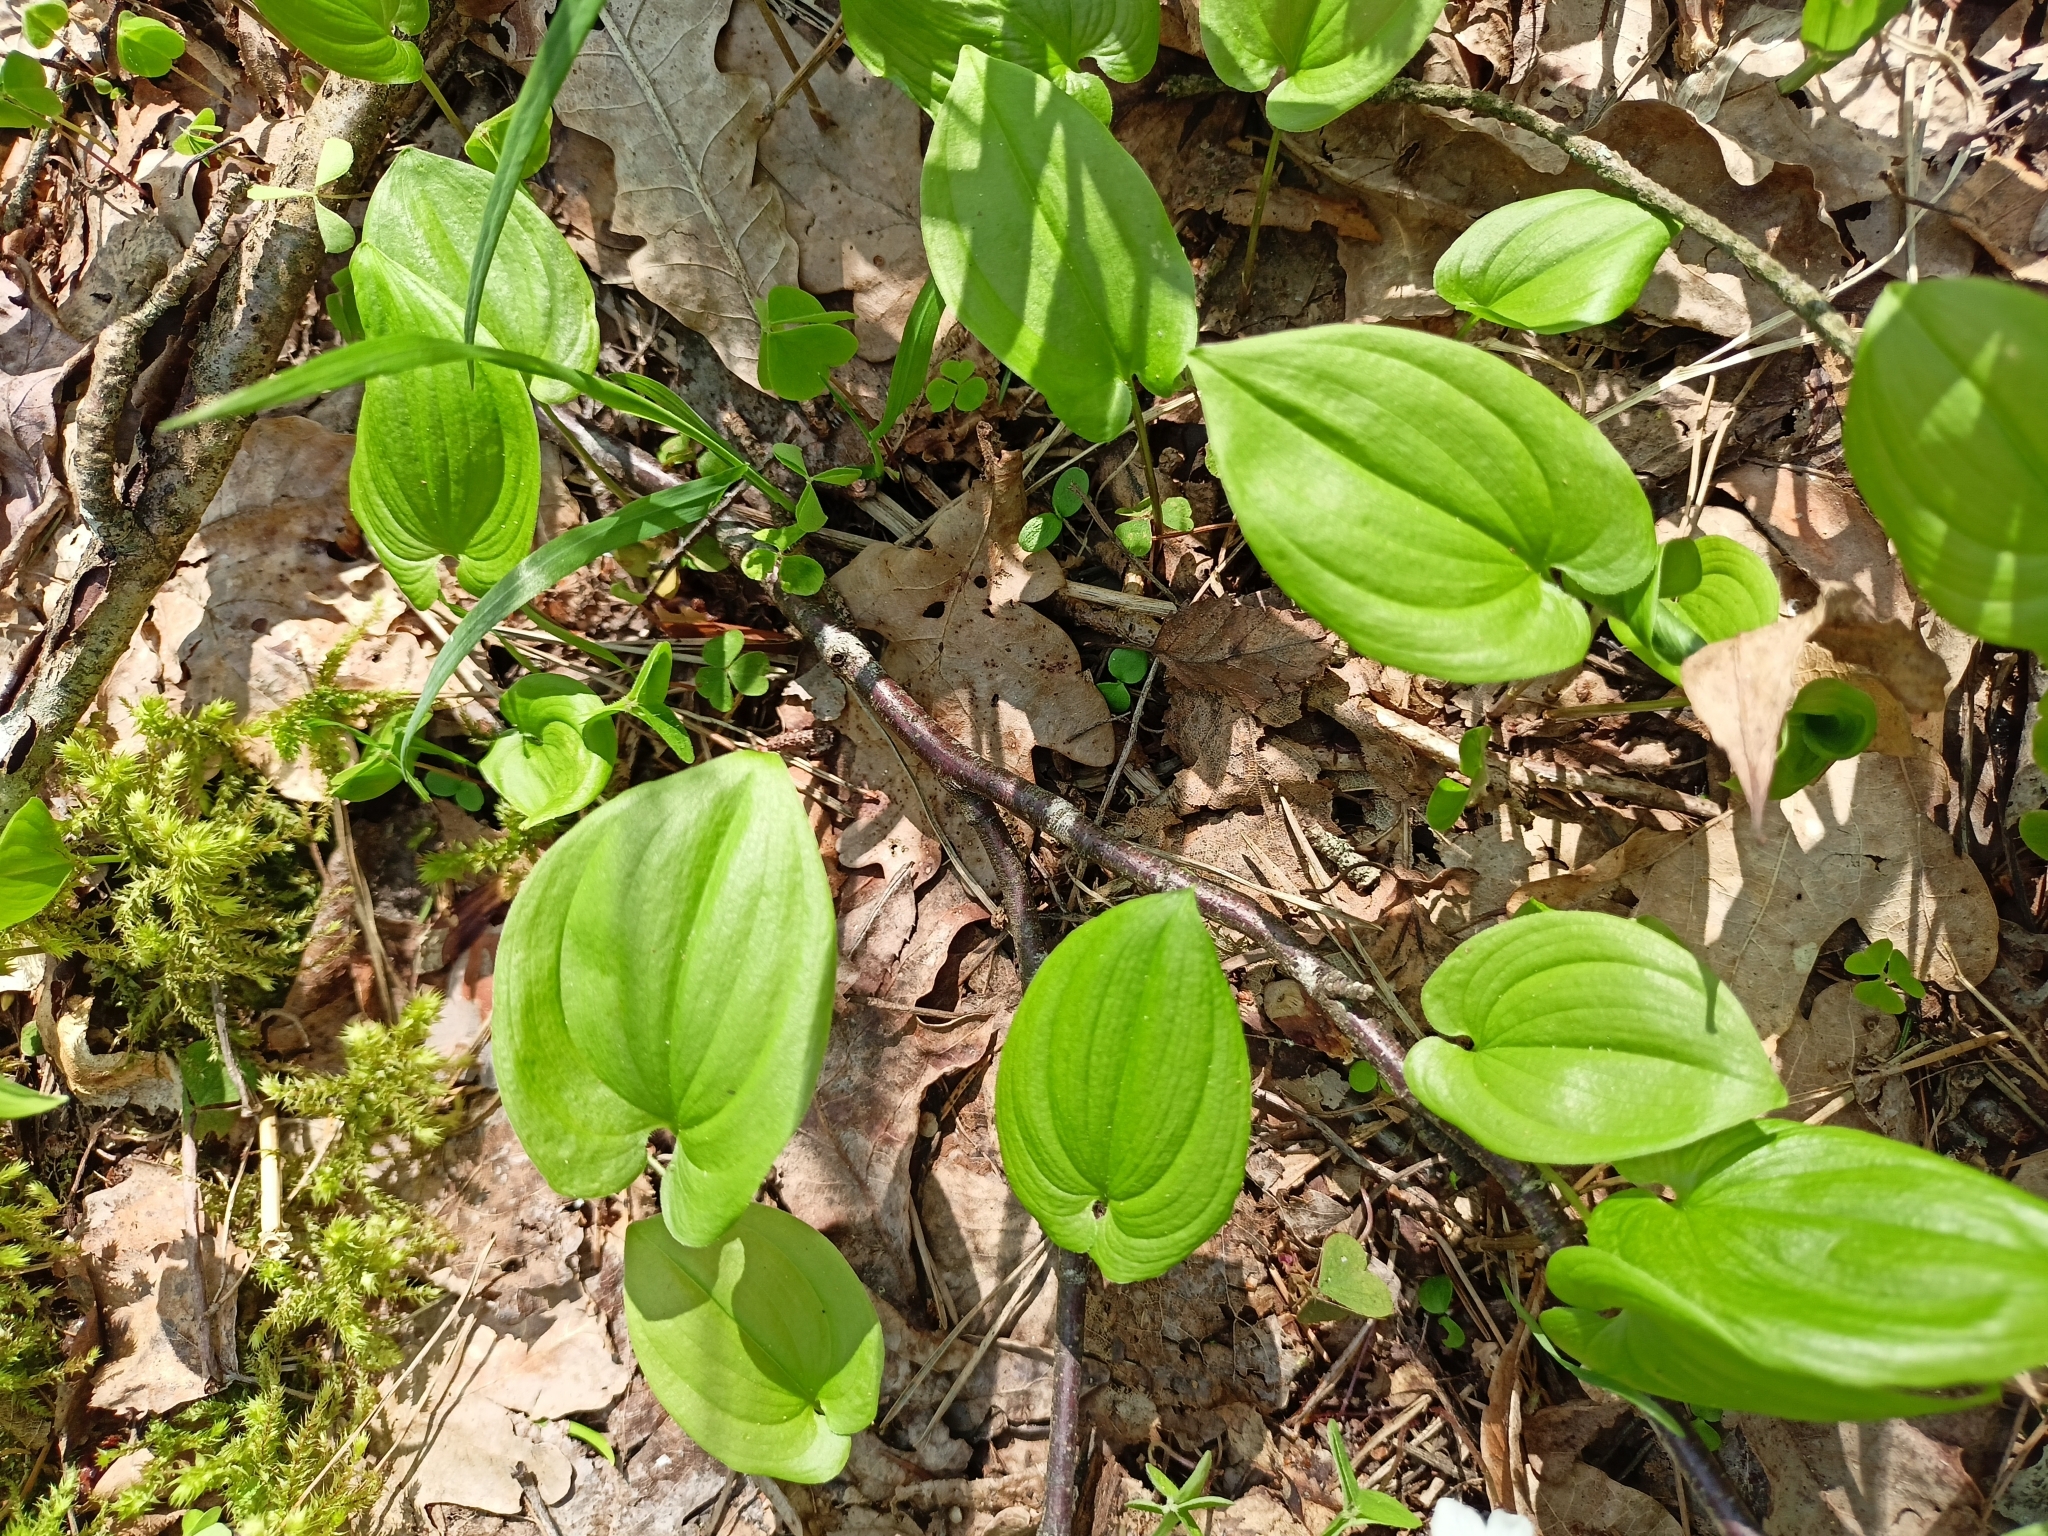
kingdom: Plantae
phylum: Tracheophyta
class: Liliopsida
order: Asparagales
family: Asparagaceae
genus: Maianthemum
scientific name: Maianthemum bifolium
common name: May lily
